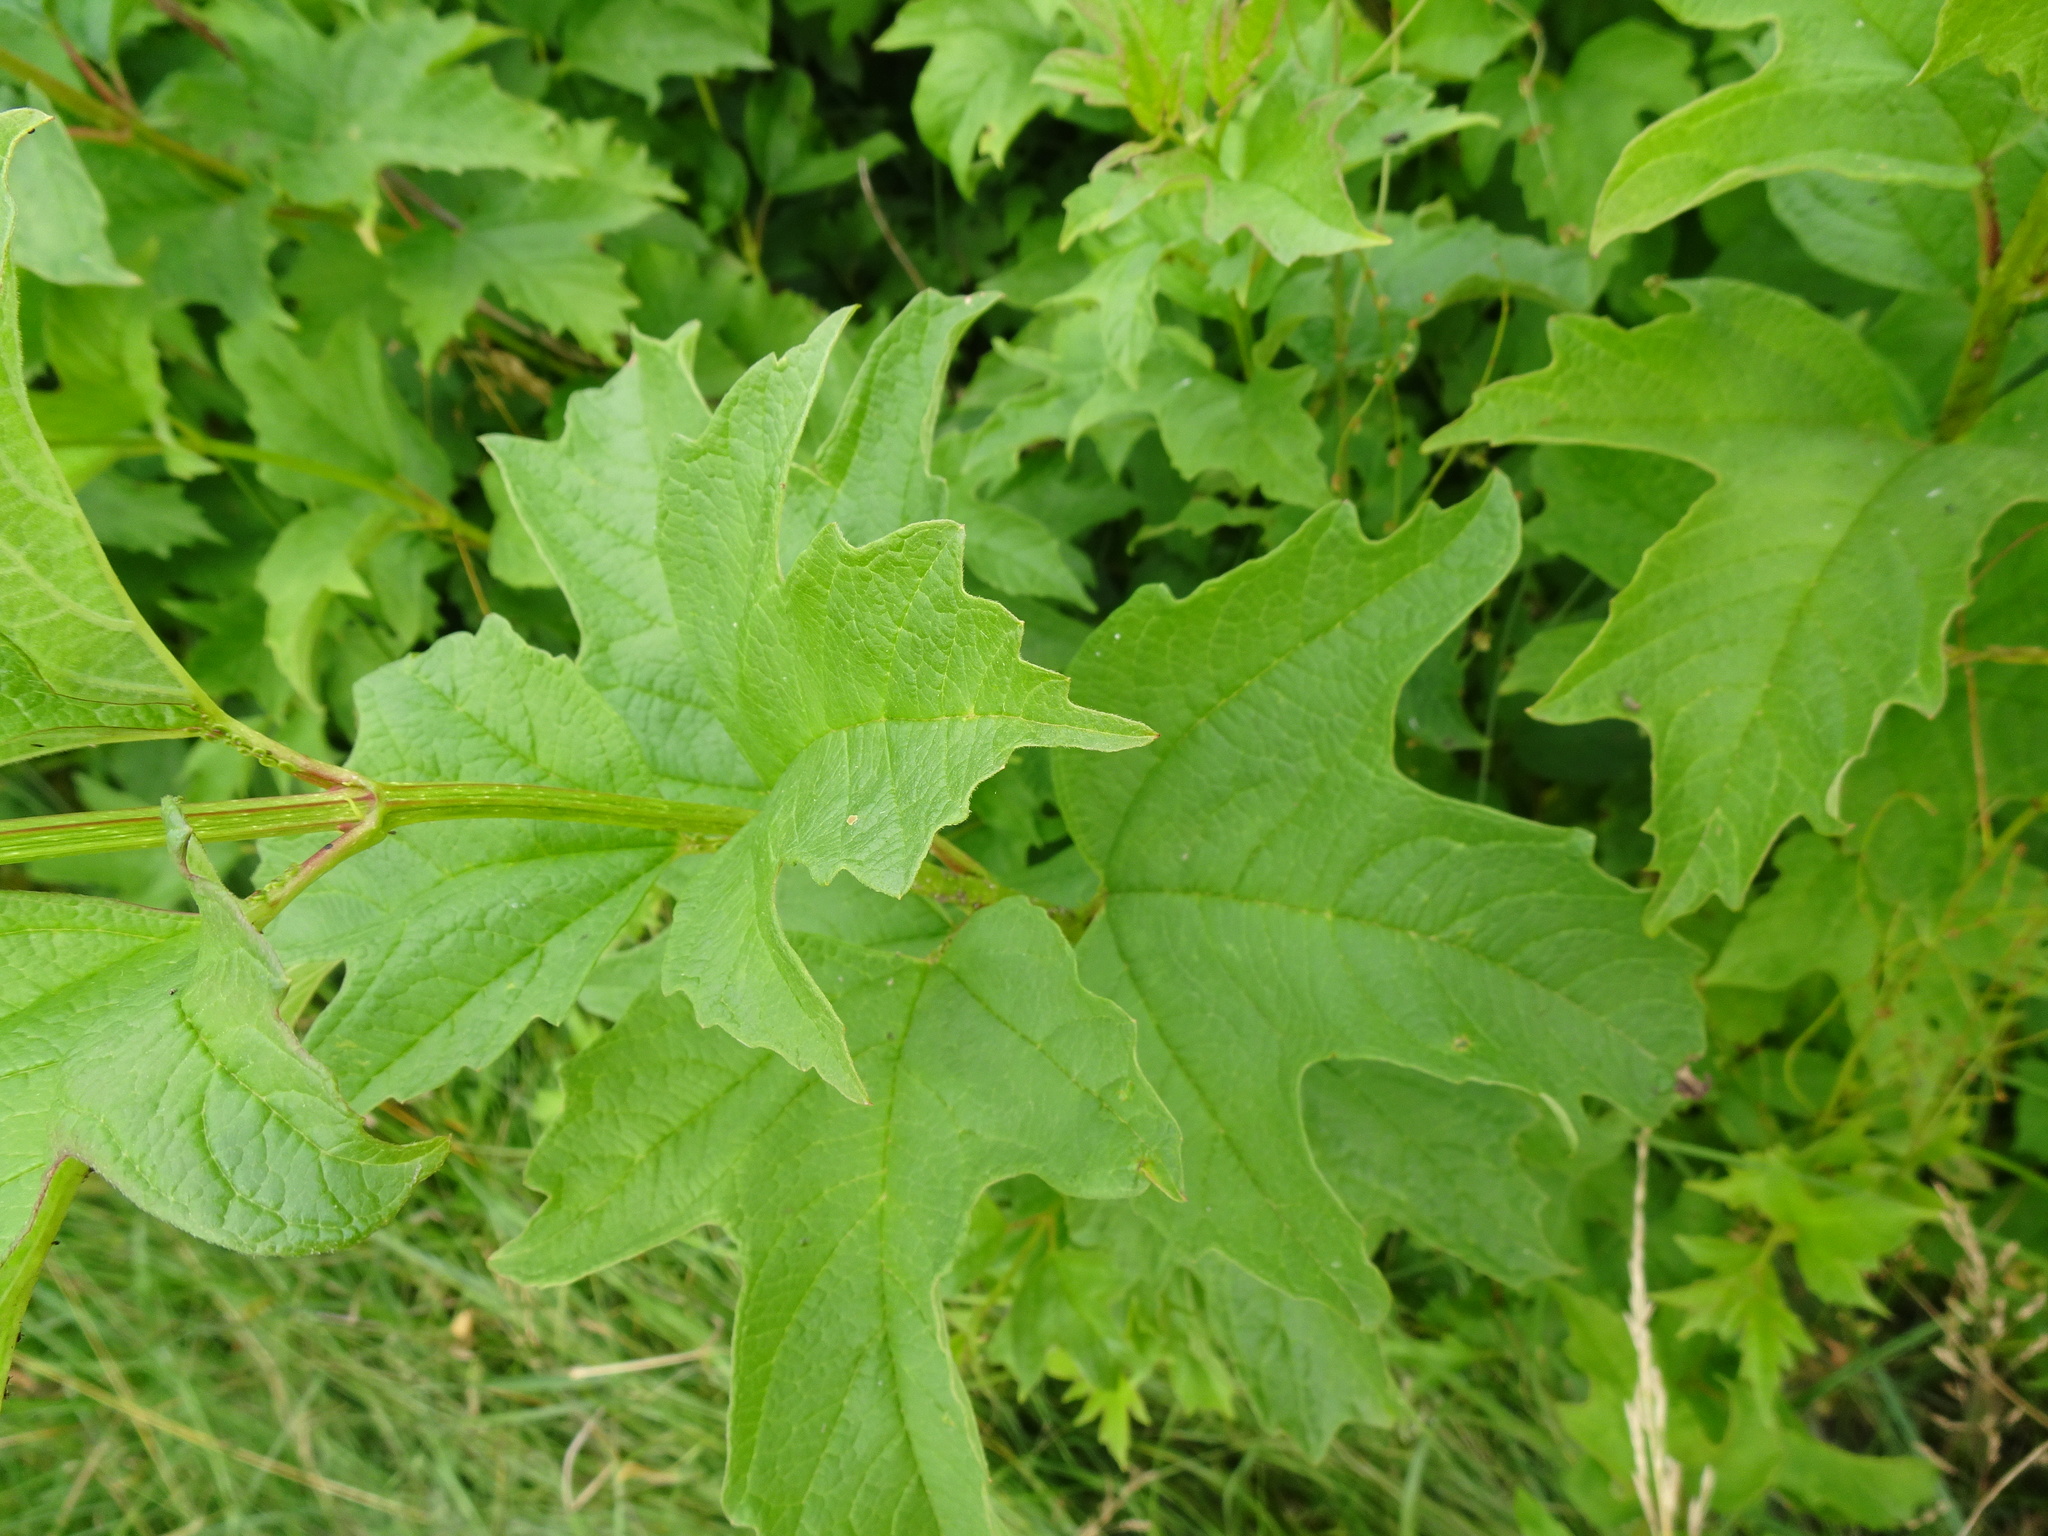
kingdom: Plantae
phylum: Tracheophyta
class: Magnoliopsida
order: Dipsacales
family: Viburnaceae
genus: Viburnum
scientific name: Viburnum opulus
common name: Guelder-rose
